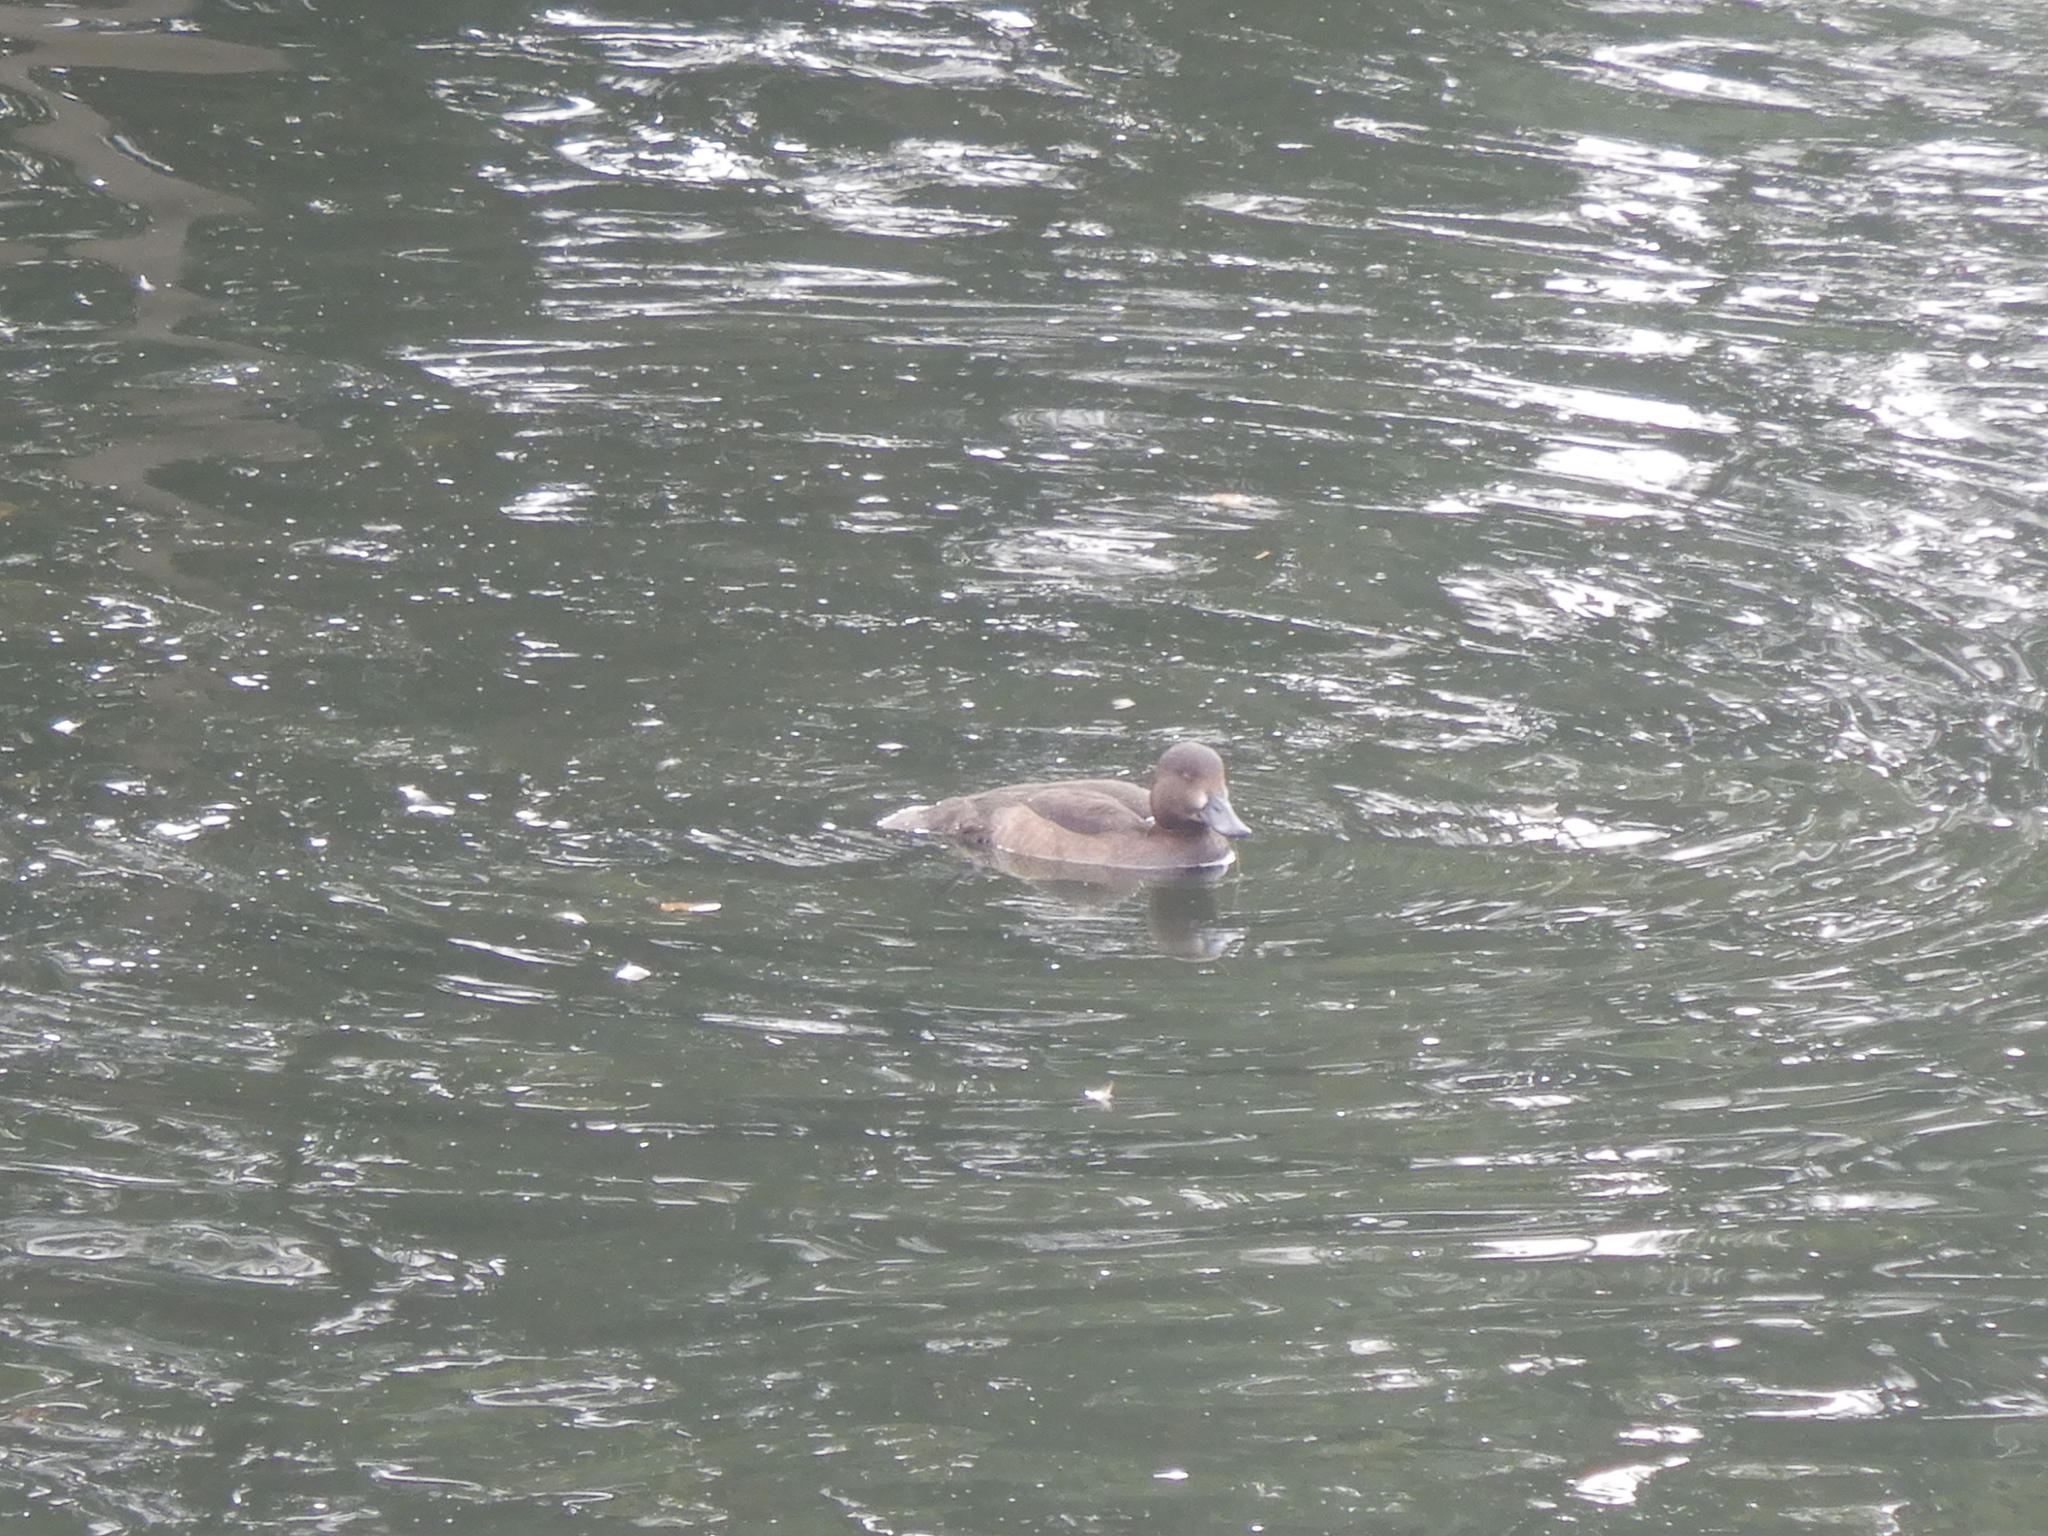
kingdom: Animalia
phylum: Chordata
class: Aves
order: Anseriformes
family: Anatidae
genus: Aythya
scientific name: Aythya fuligula
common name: Tufted duck
